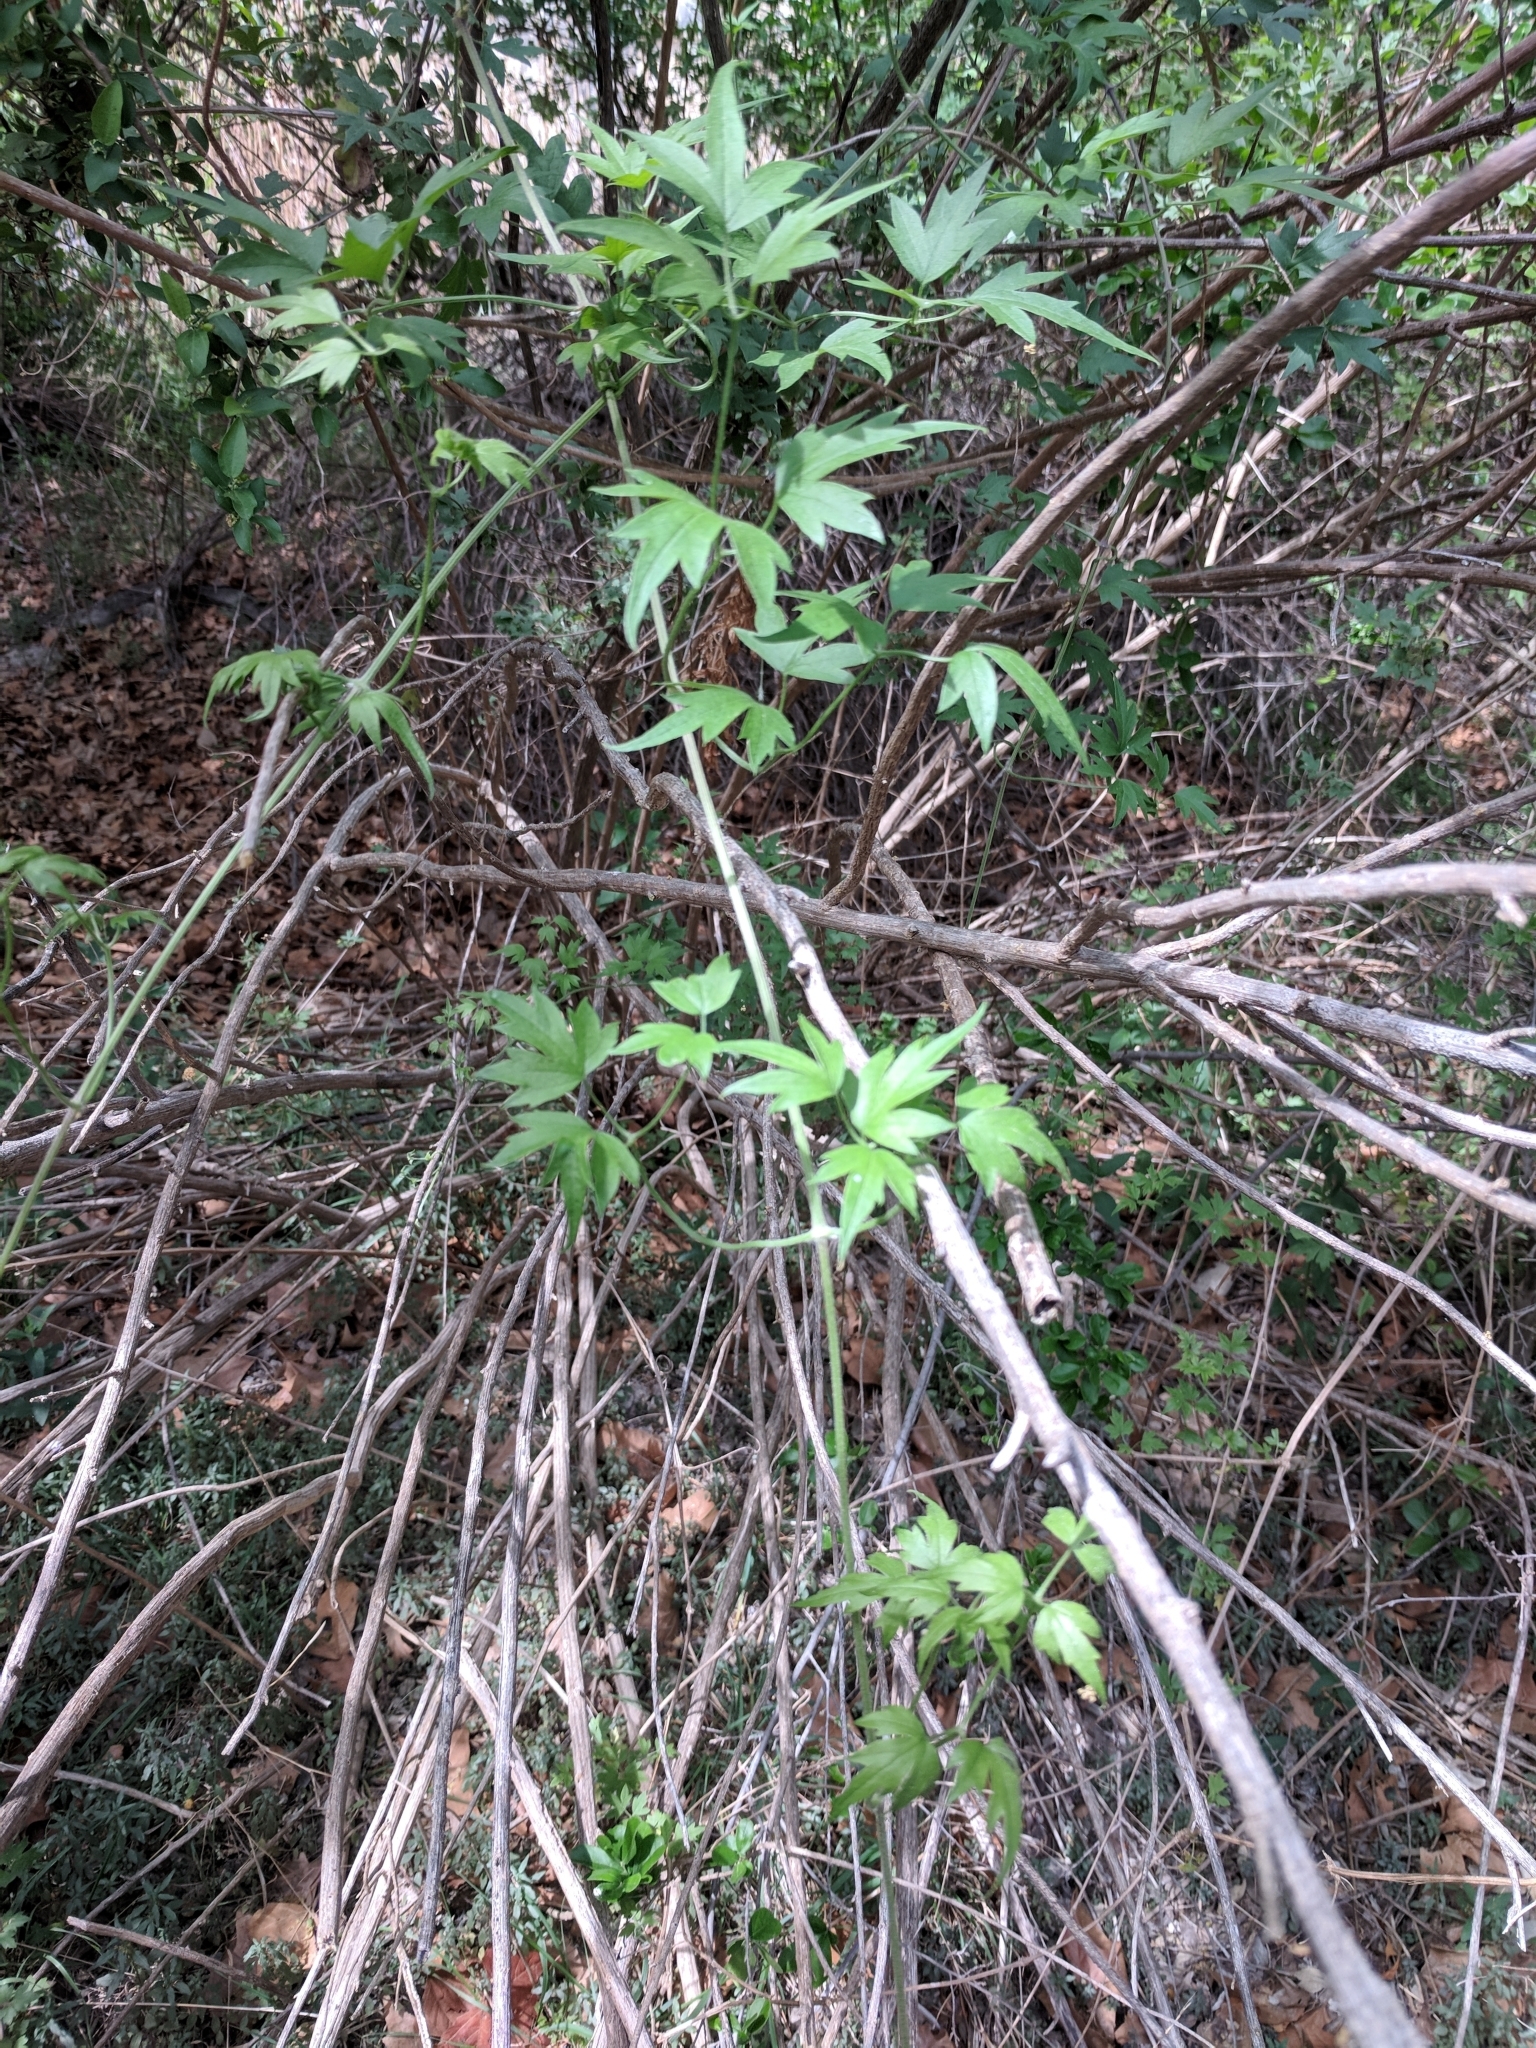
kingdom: Plantae
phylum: Tracheophyta
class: Magnoliopsida
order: Ranunculales
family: Ranunculaceae
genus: Clematis
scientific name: Clematis drummondii
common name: Texas virgin's bower
